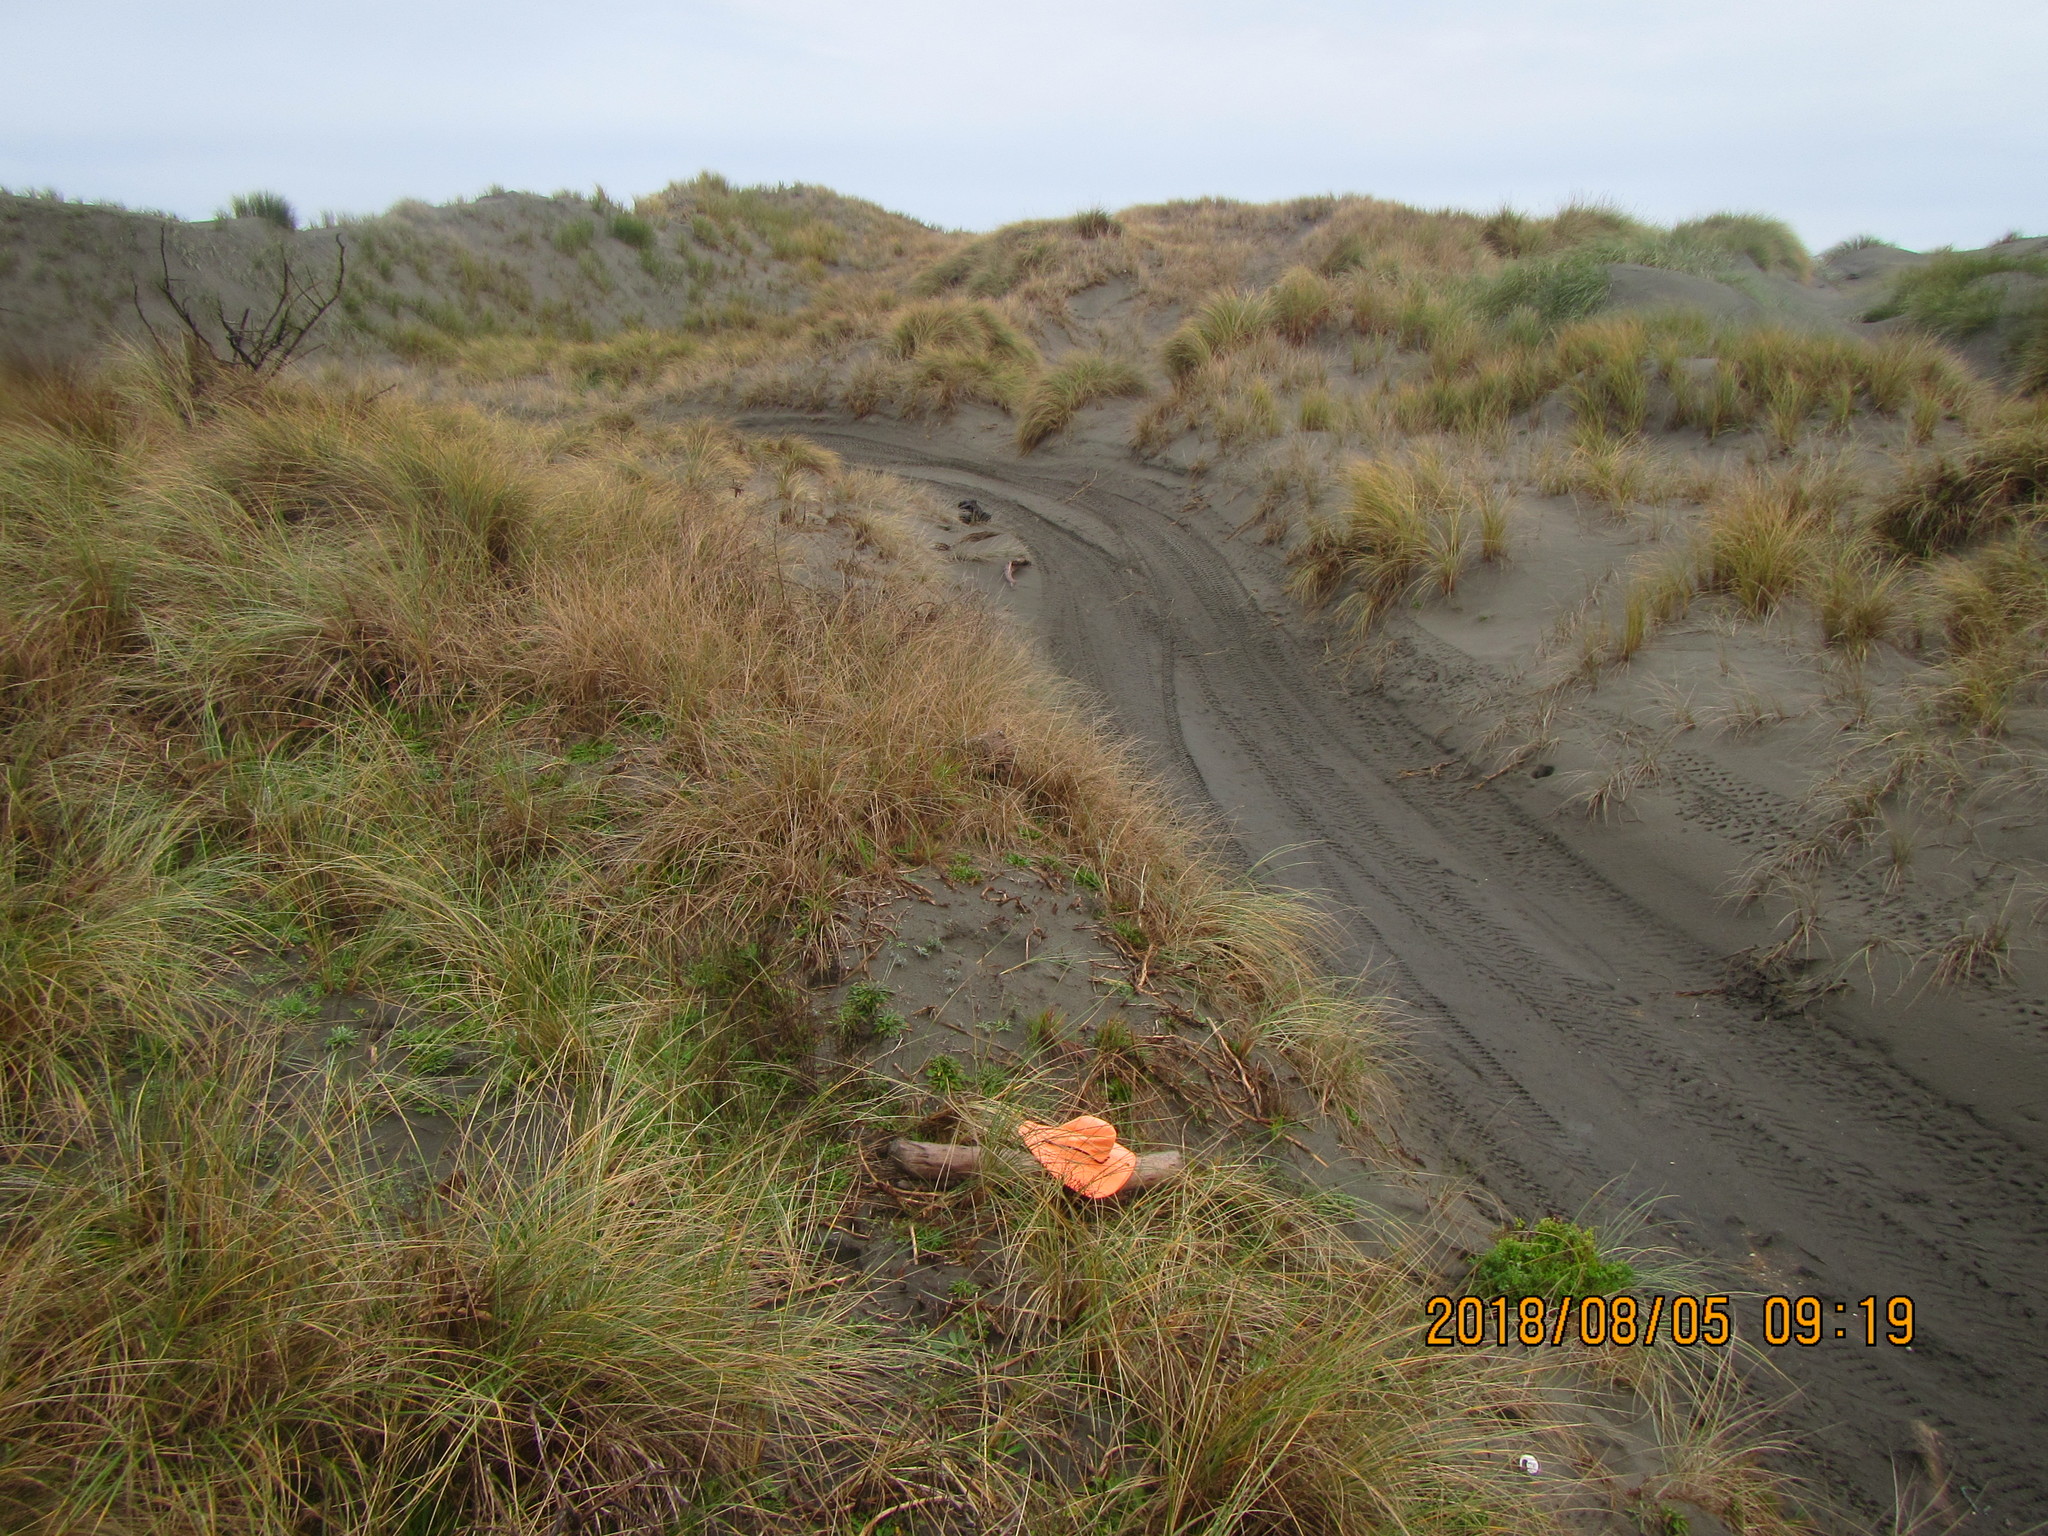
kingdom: Animalia
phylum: Mollusca
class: Gastropoda
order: Stylommatophora
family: Helicidae
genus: Cornu
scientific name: Cornu aspersum
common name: Brown garden snail
